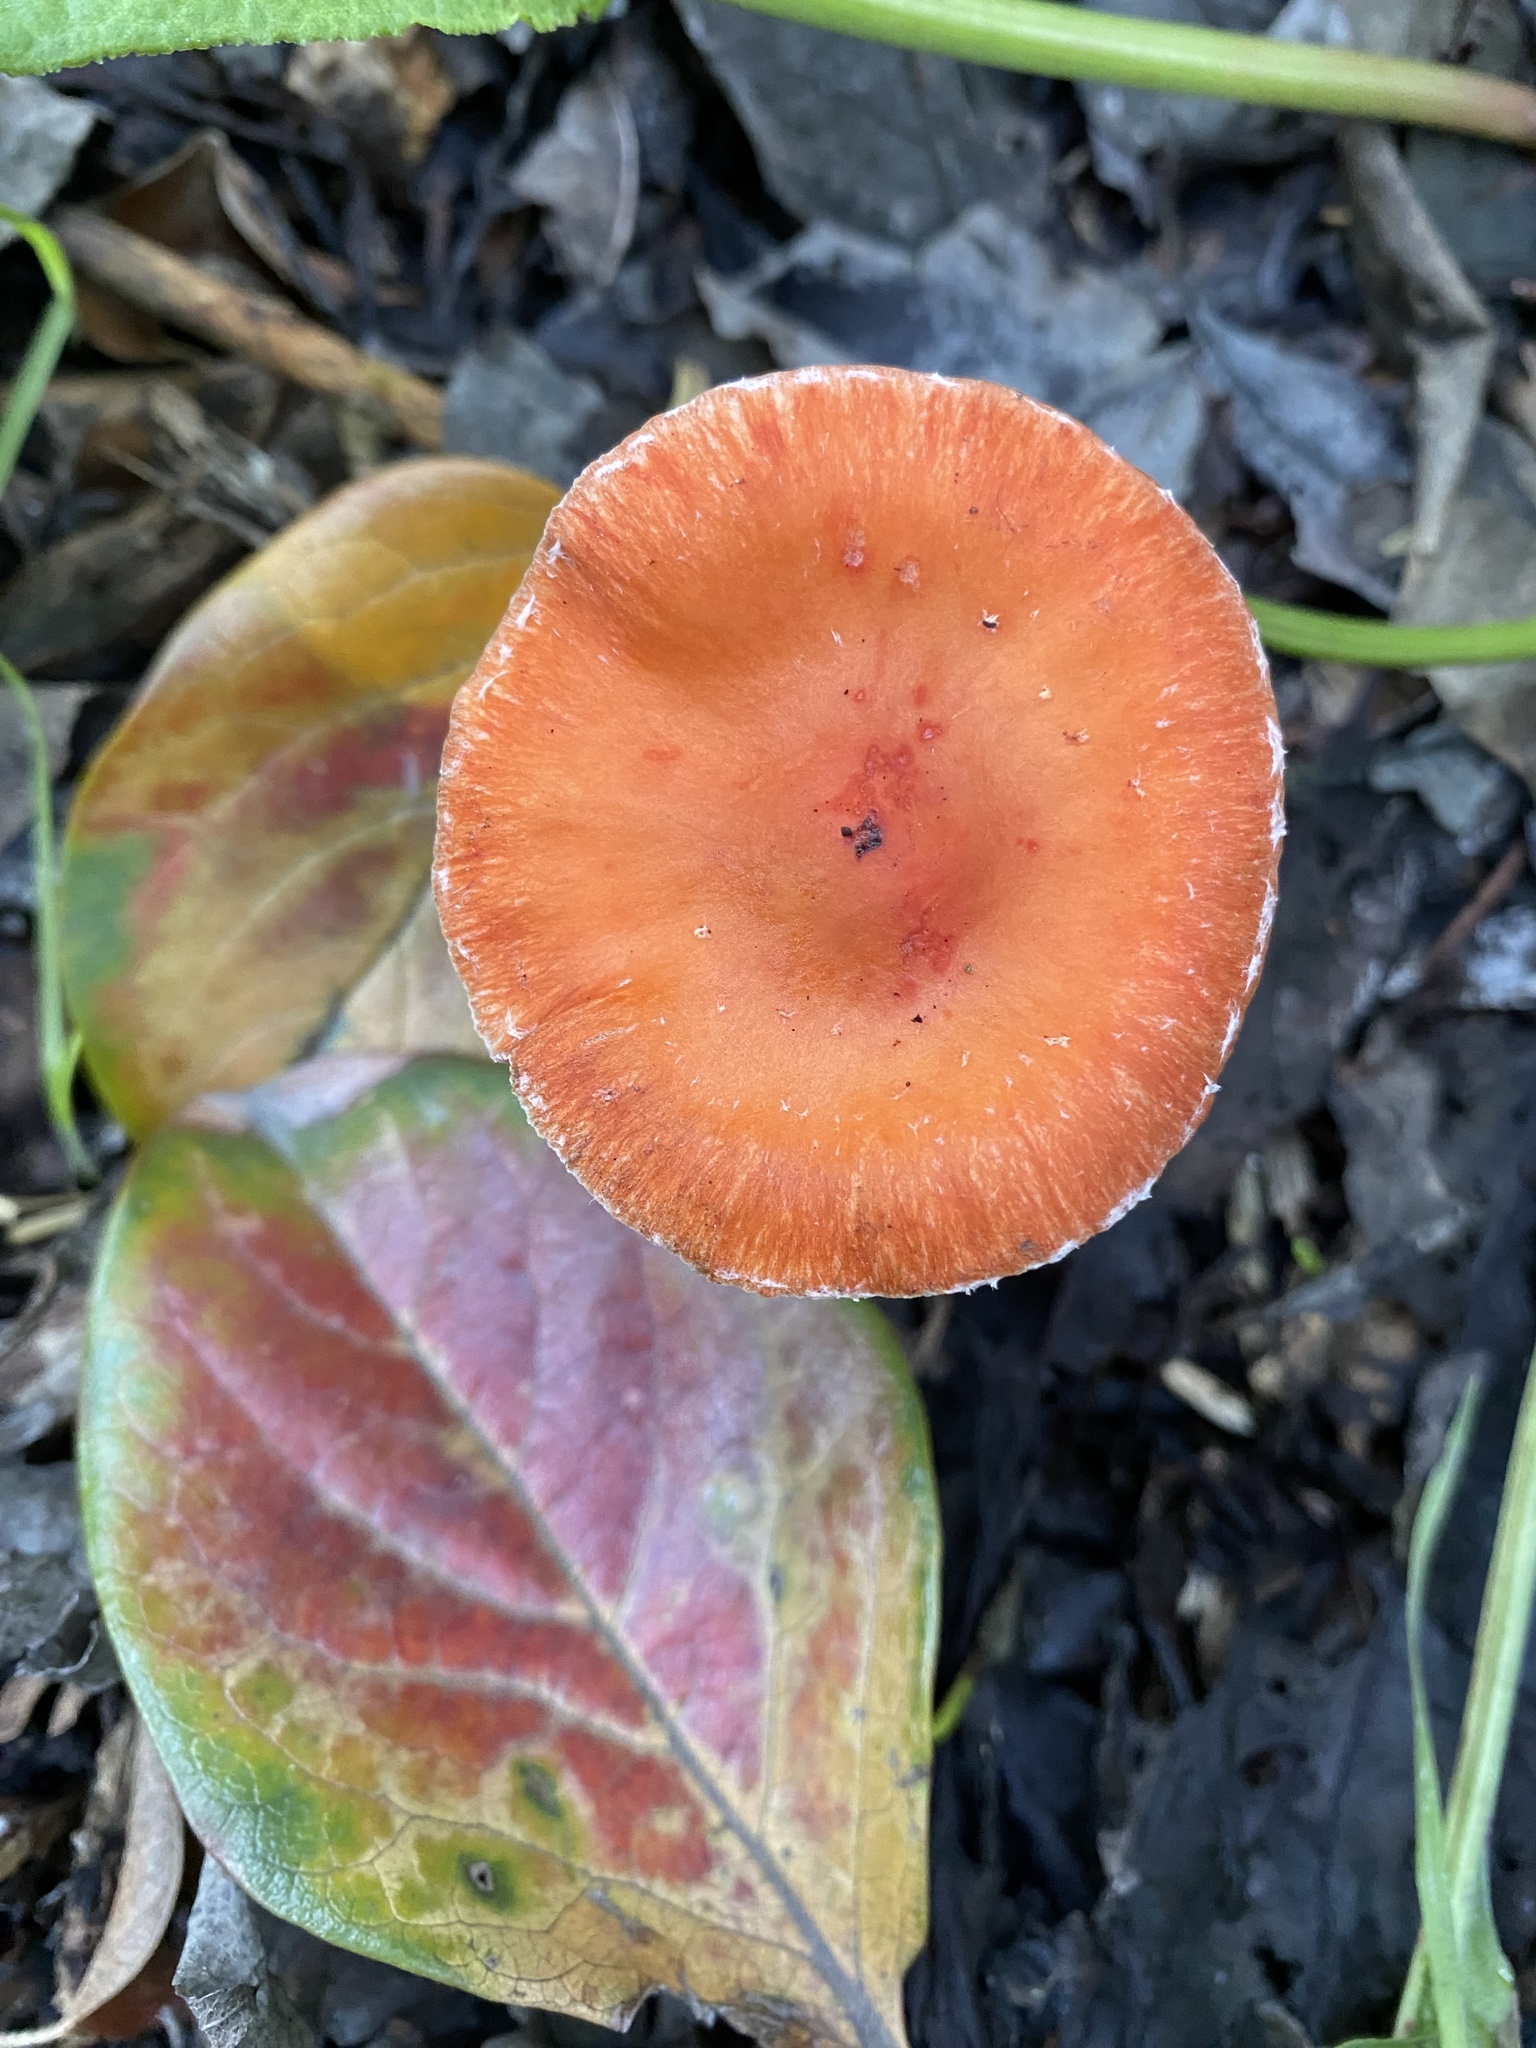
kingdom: Fungi
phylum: Basidiomycota
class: Agaricomycetes
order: Agaricales
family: Strophariaceae
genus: Leratiomyces
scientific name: Leratiomyces ceres
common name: Redlead roundhead
